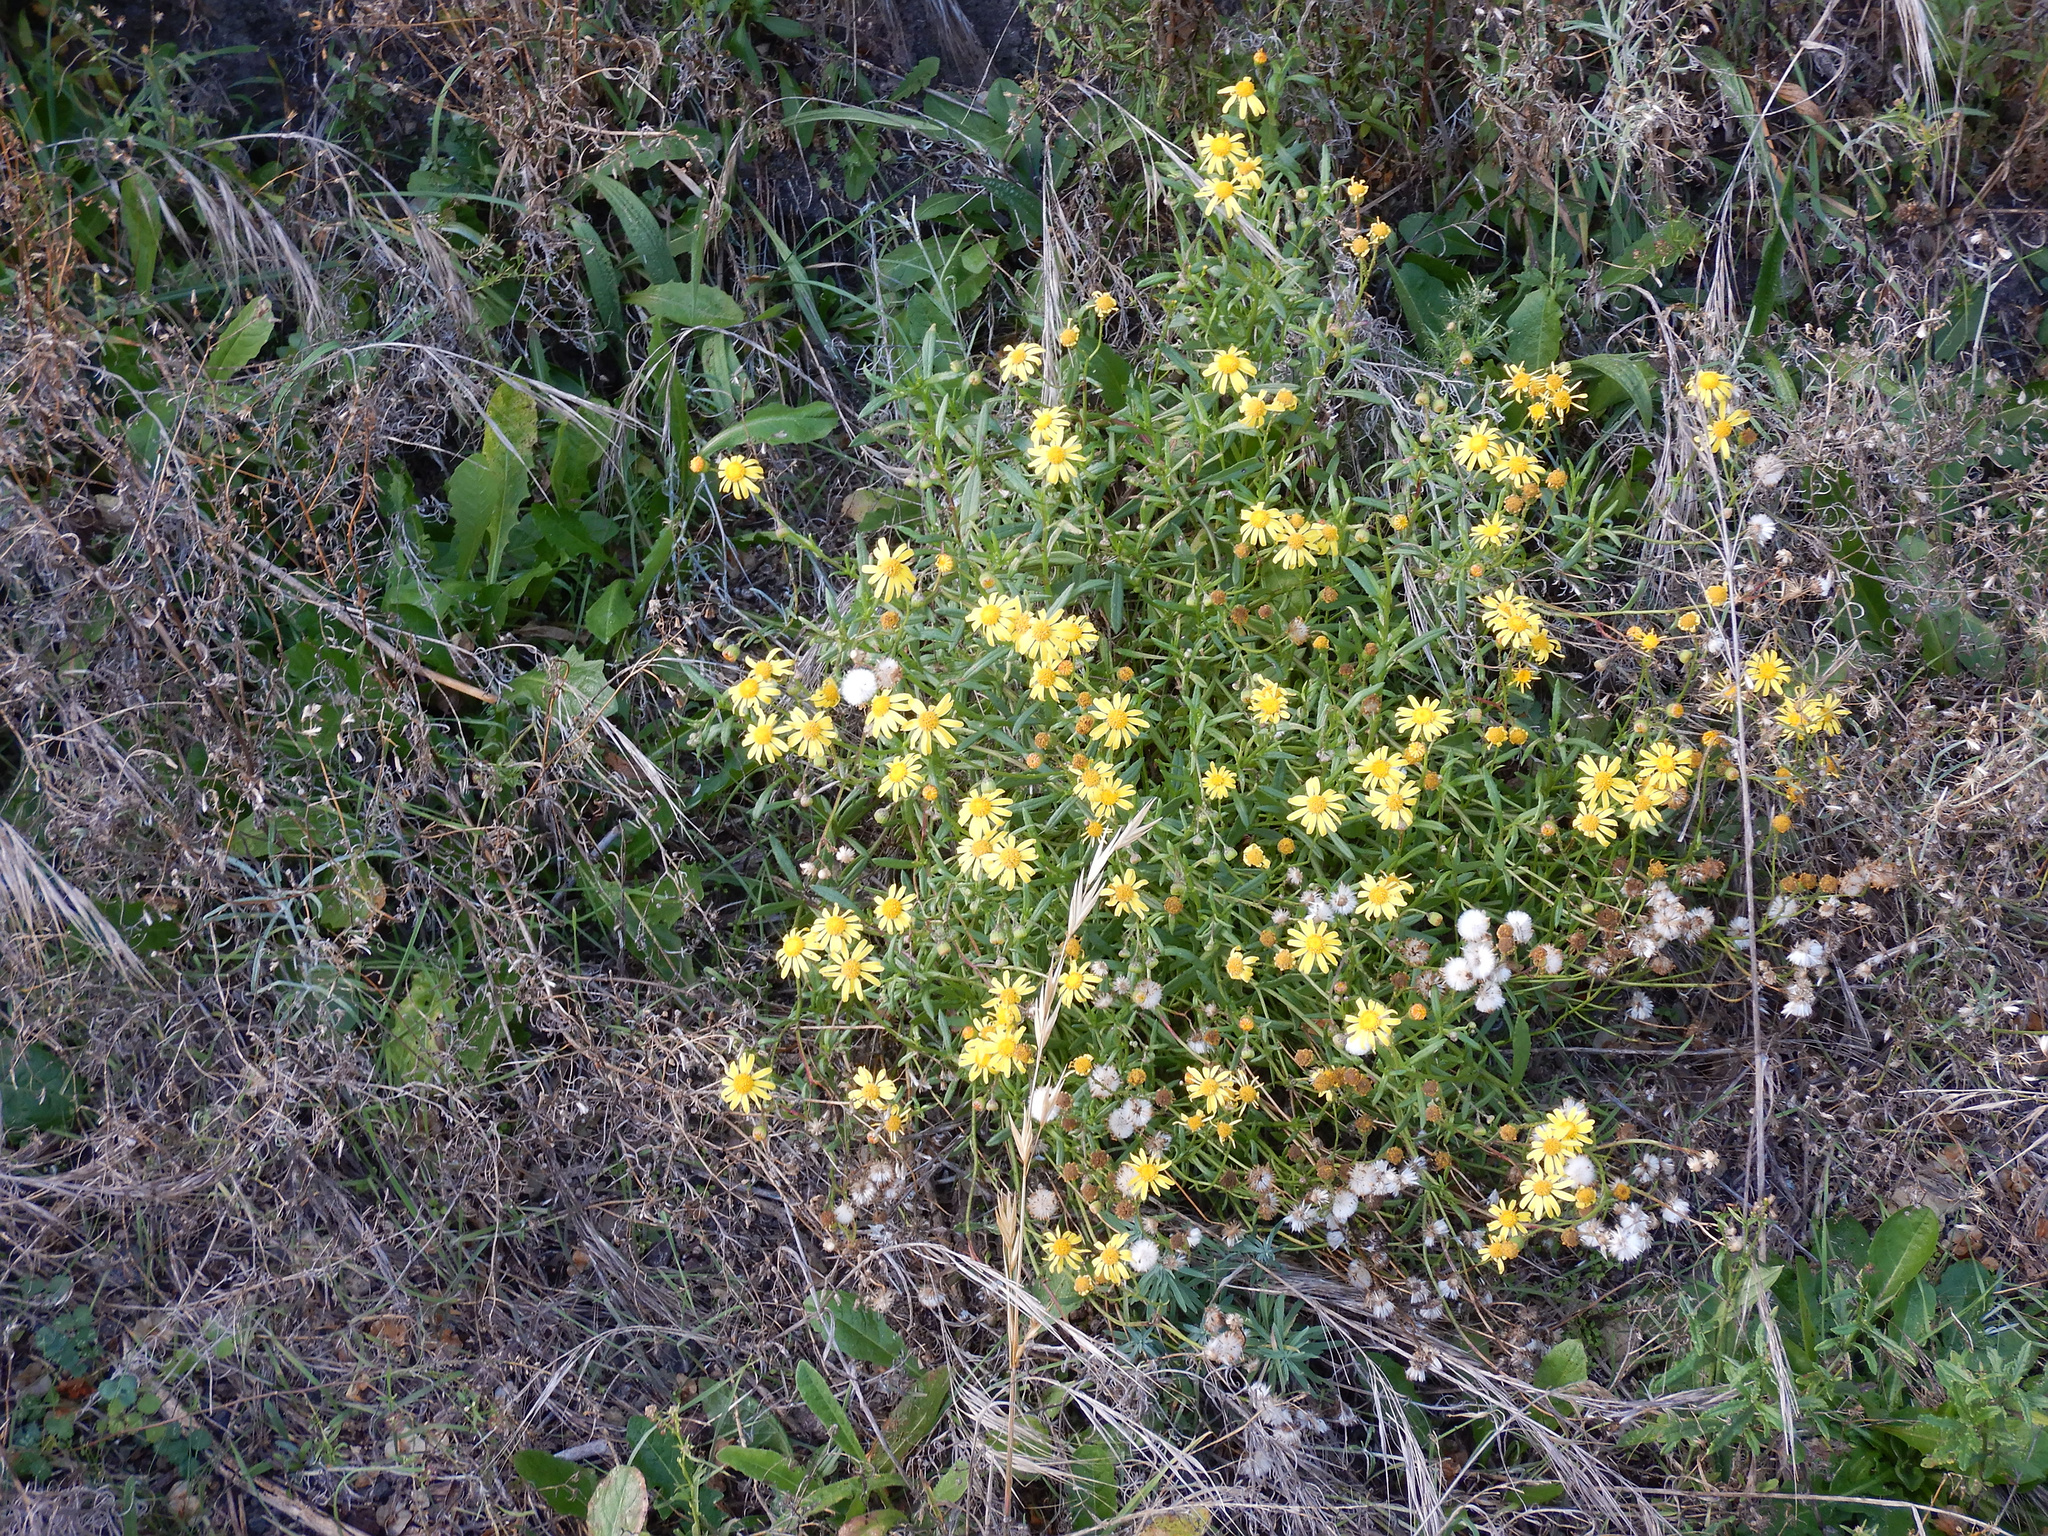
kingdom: Plantae
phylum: Tracheophyta
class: Magnoliopsida
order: Asterales
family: Asteraceae
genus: Senecio
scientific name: Senecio skirrhodon
